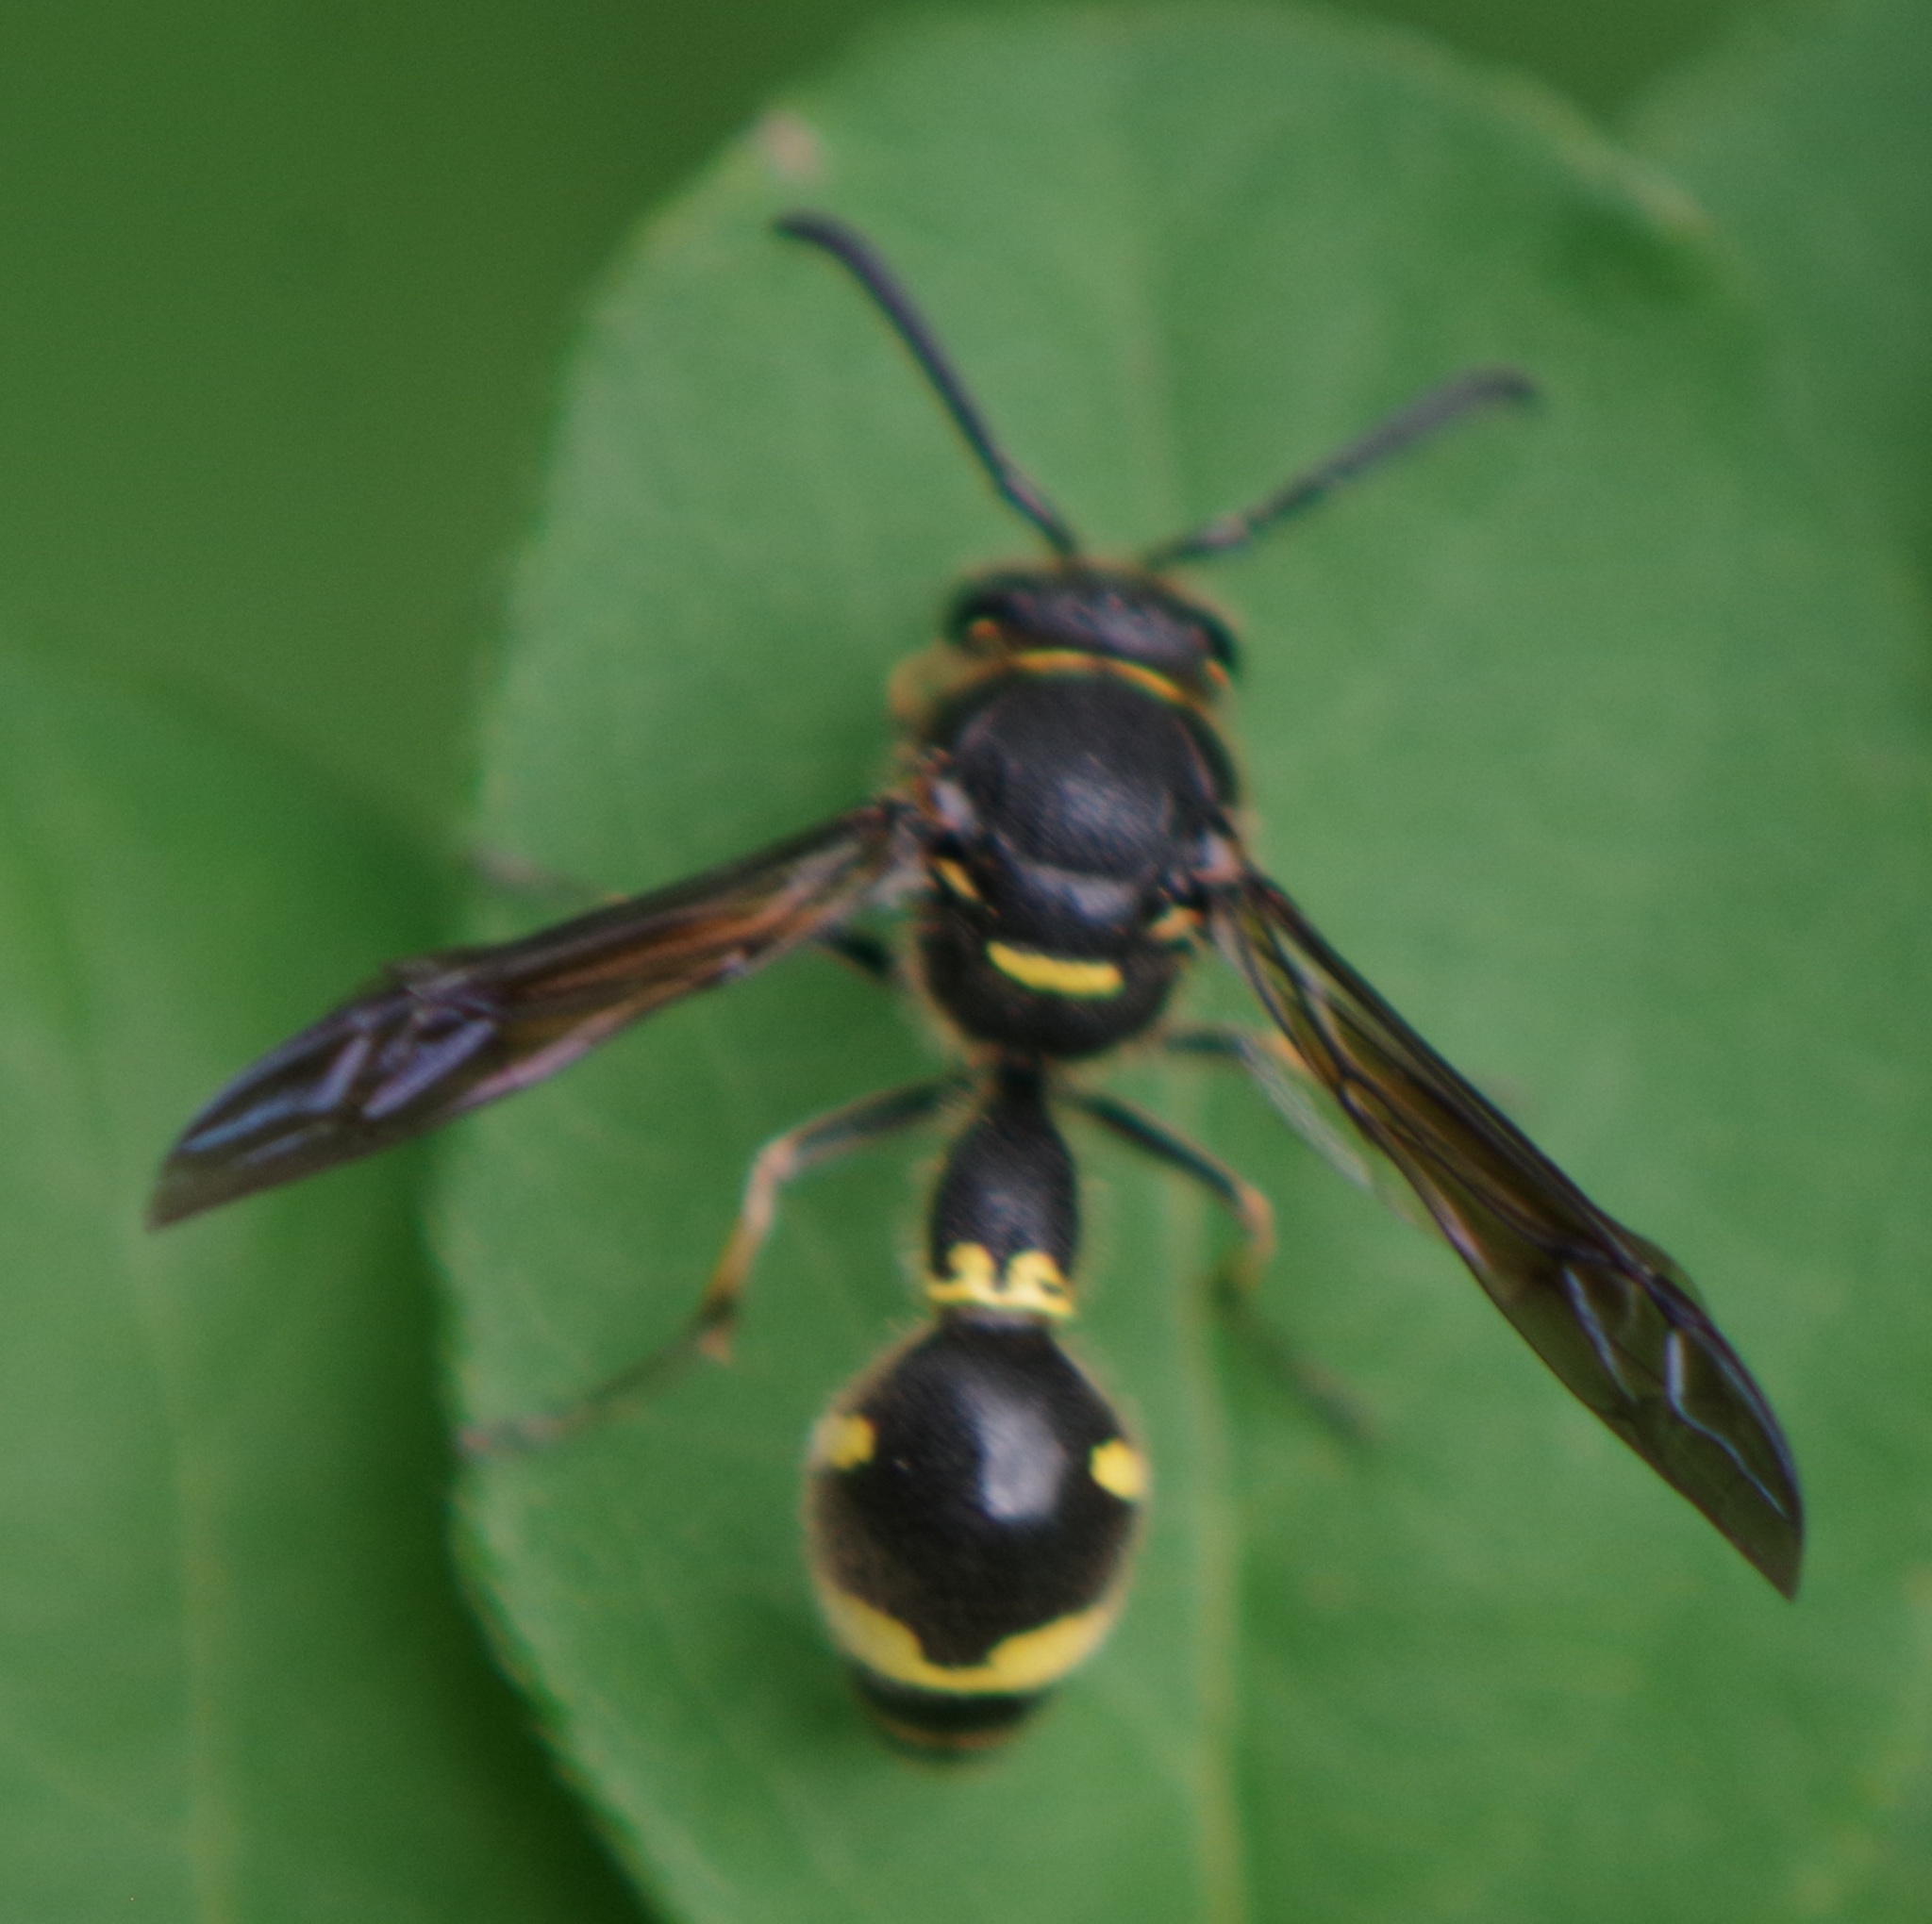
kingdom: Animalia
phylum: Arthropoda
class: Insecta
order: Hymenoptera
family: Vespidae
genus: Eumenes
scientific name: Eumenes
